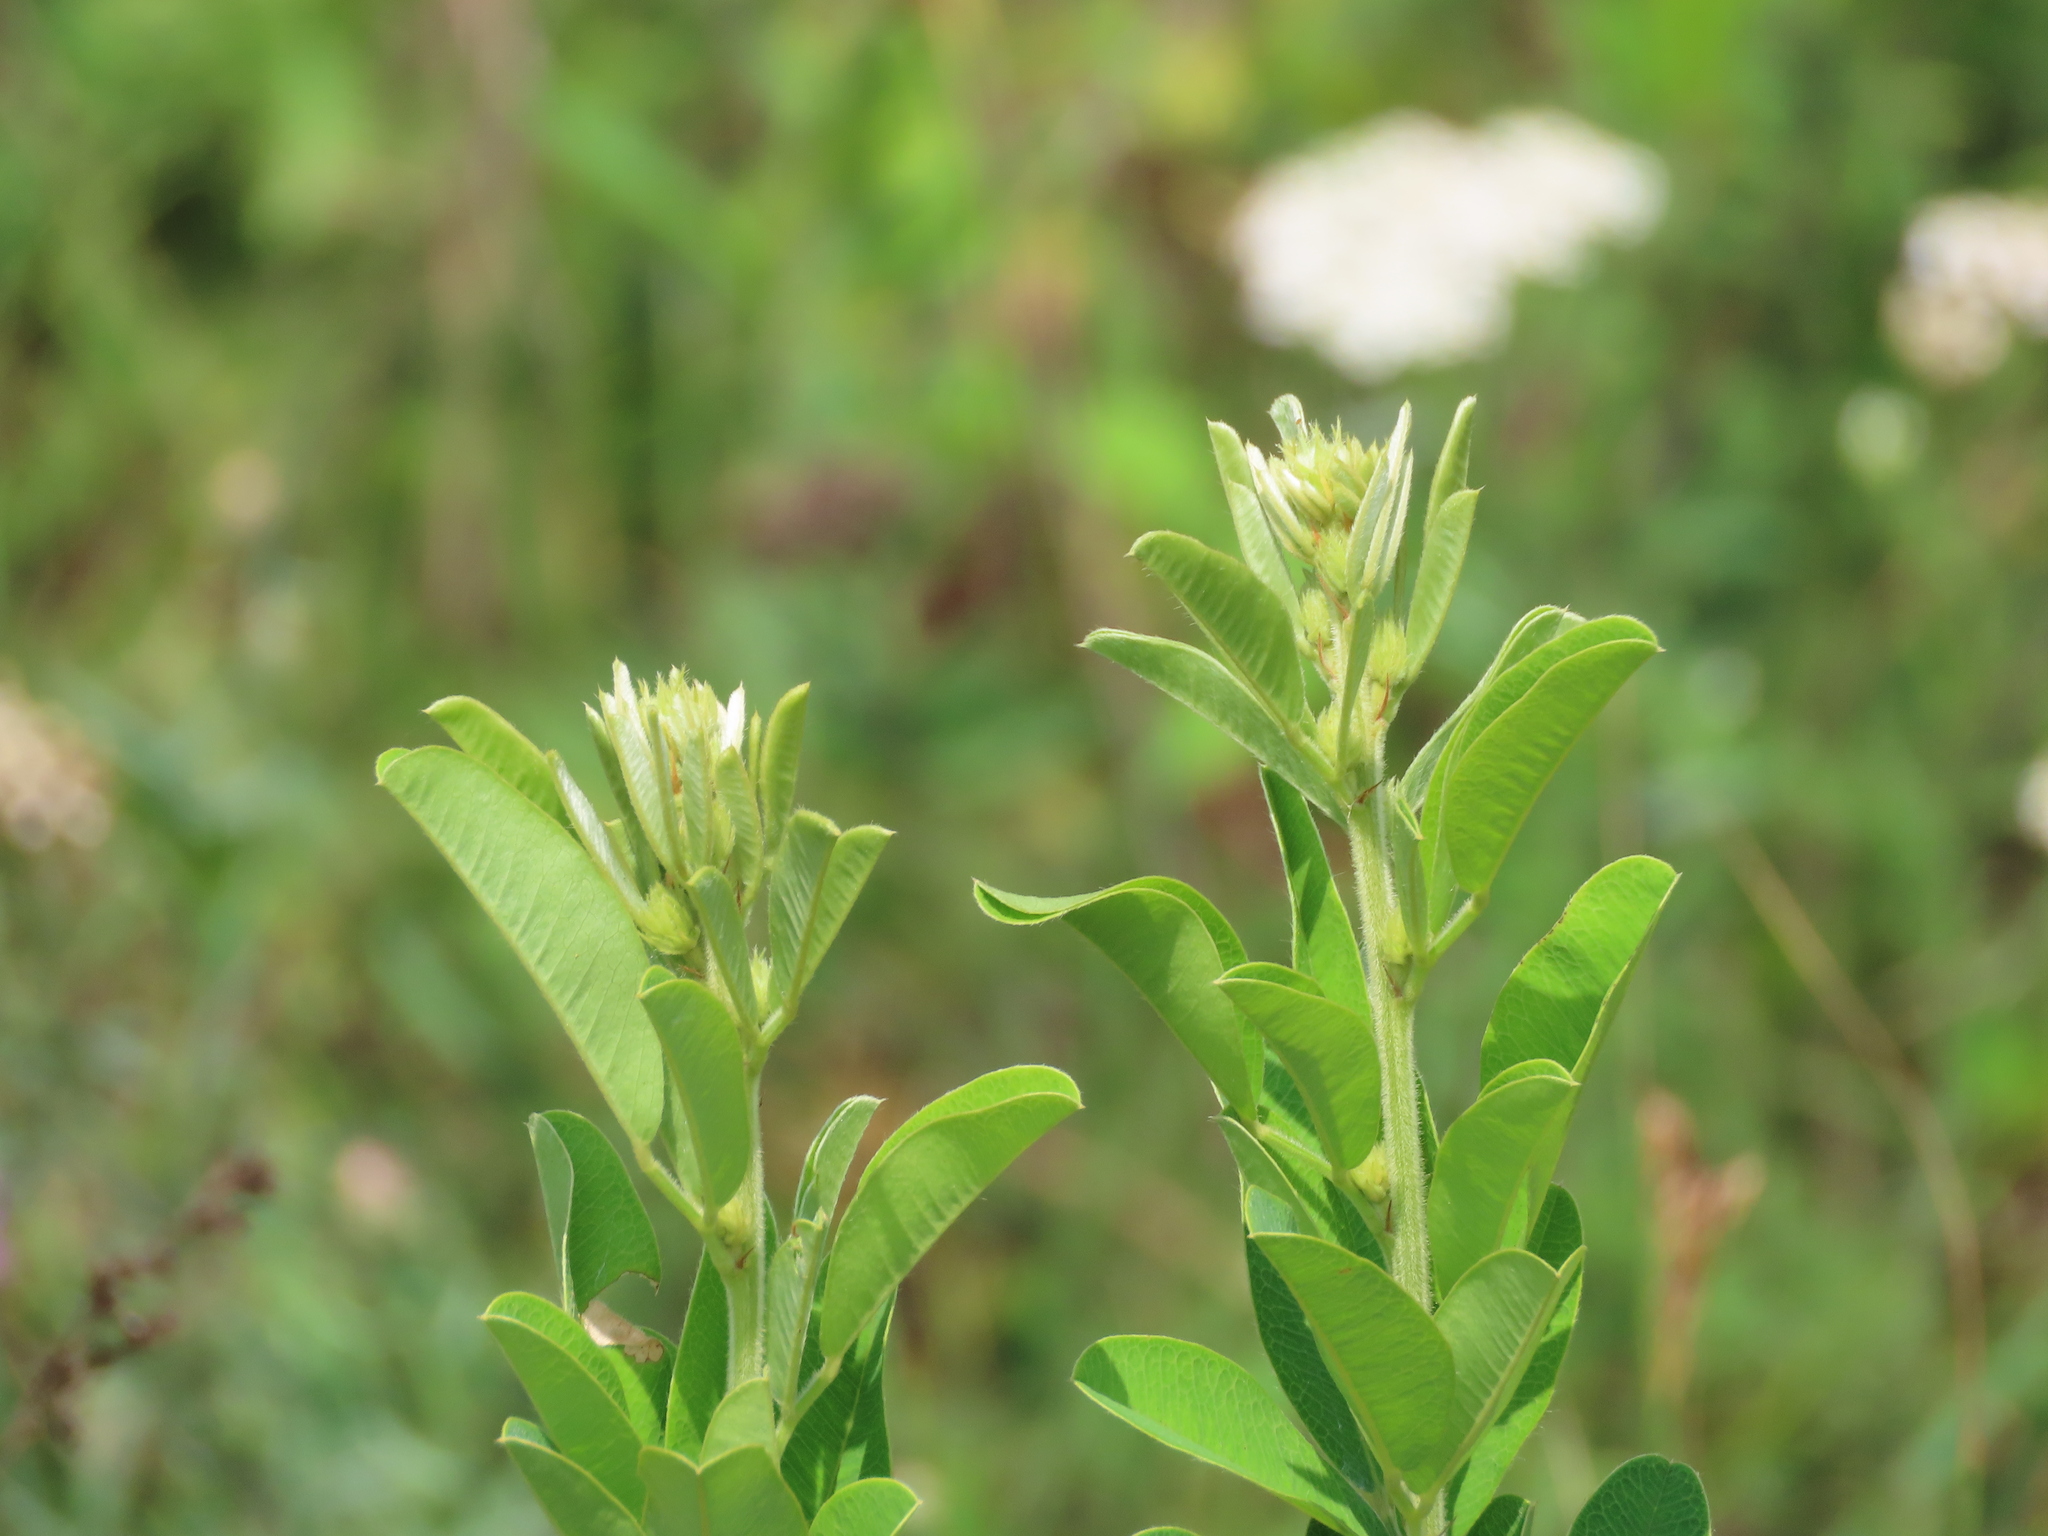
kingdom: Plantae
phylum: Tracheophyta
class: Magnoliopsida
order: Fabales
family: Fabaceae
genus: Lespedeza
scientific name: Lespedeza capitata
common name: Dusty clover
